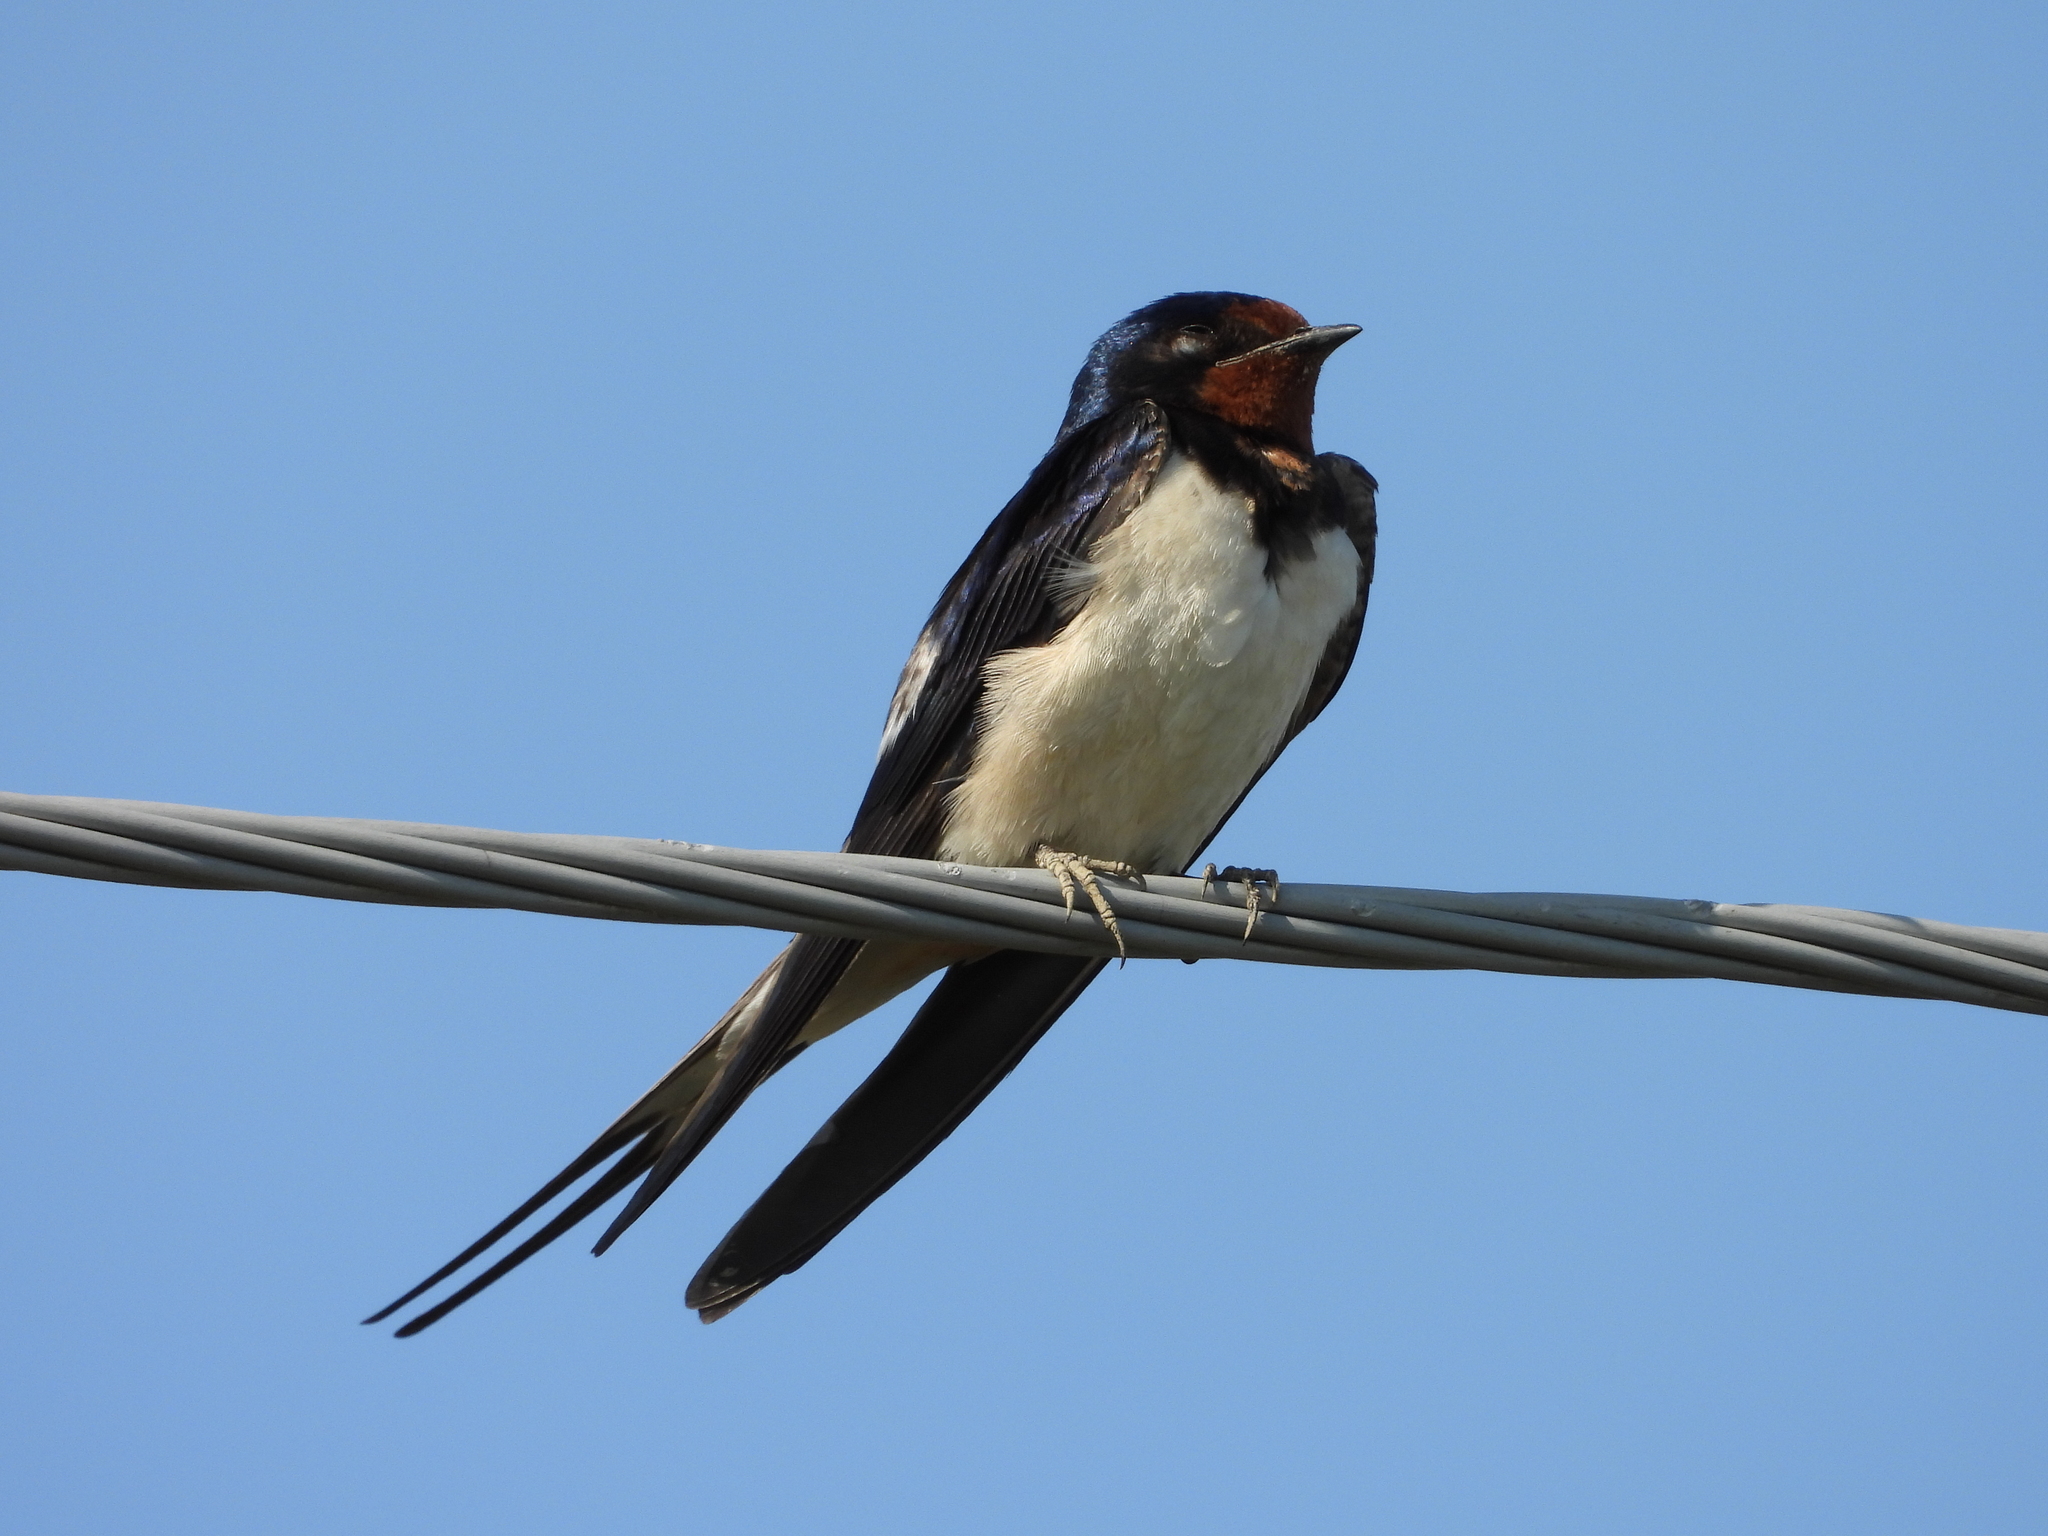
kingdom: Animalia
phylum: Chordata
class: Aves
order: Passeriformes
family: Hirundinidae
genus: Hirundo
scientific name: Hirundo rustica
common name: Barn swallow
